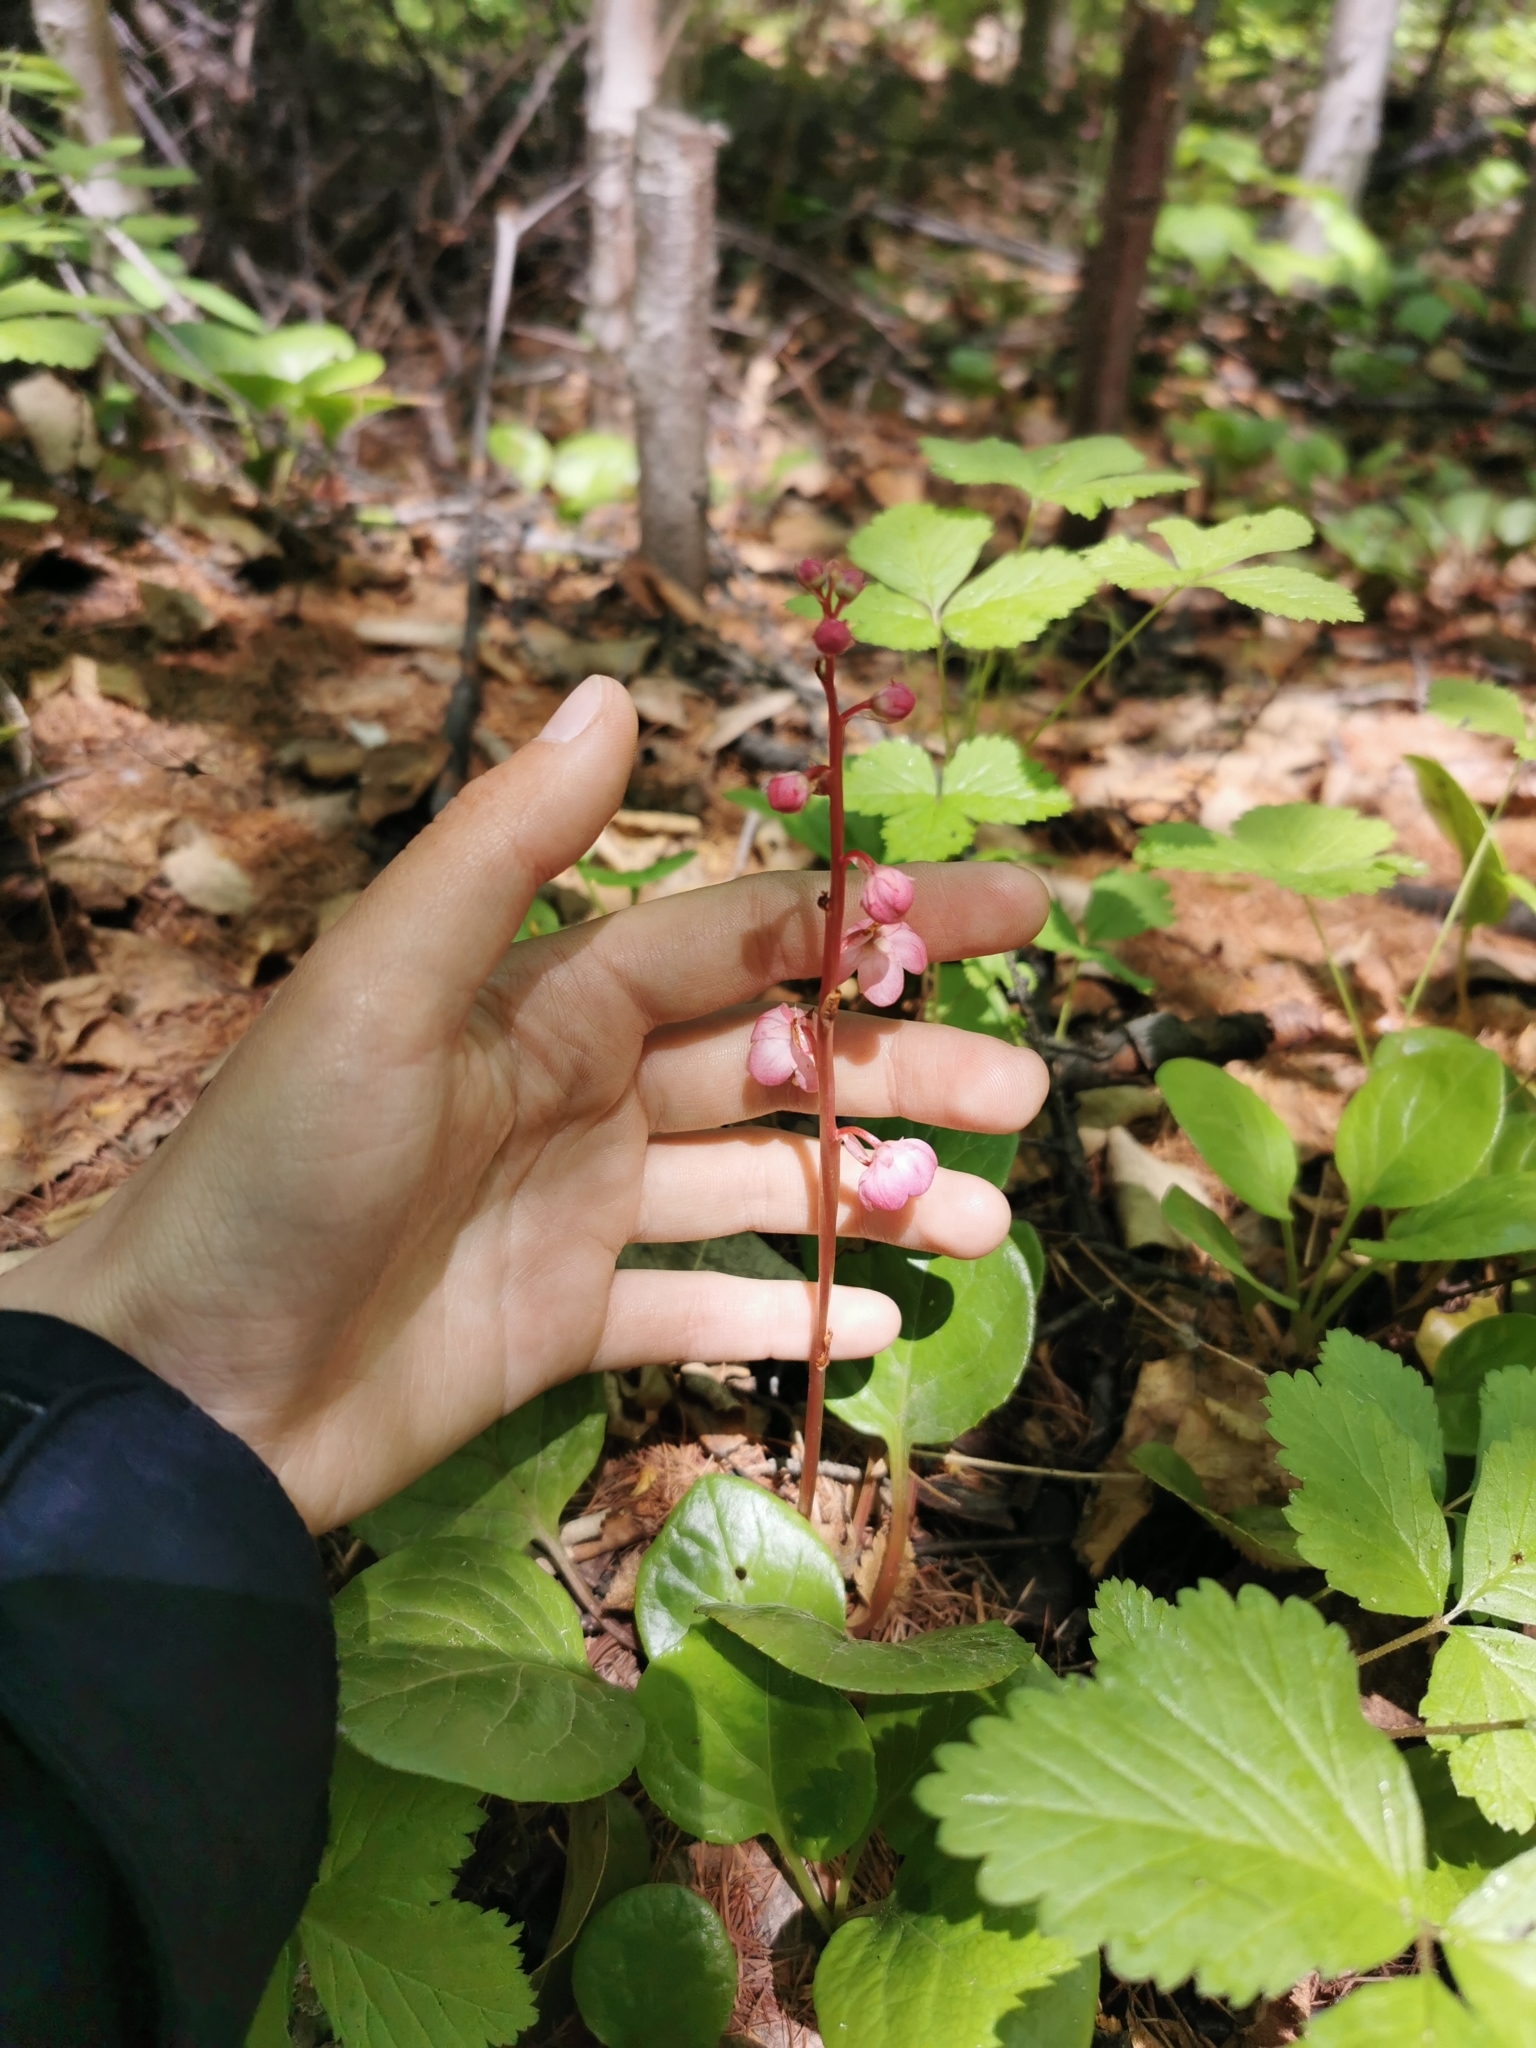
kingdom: Plantae
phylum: Tracheophyta
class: Magnoliopsida
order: Ericales
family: Ericaceae
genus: Pyrola
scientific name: Pyrola asarifolia
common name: Bog wintergreen
